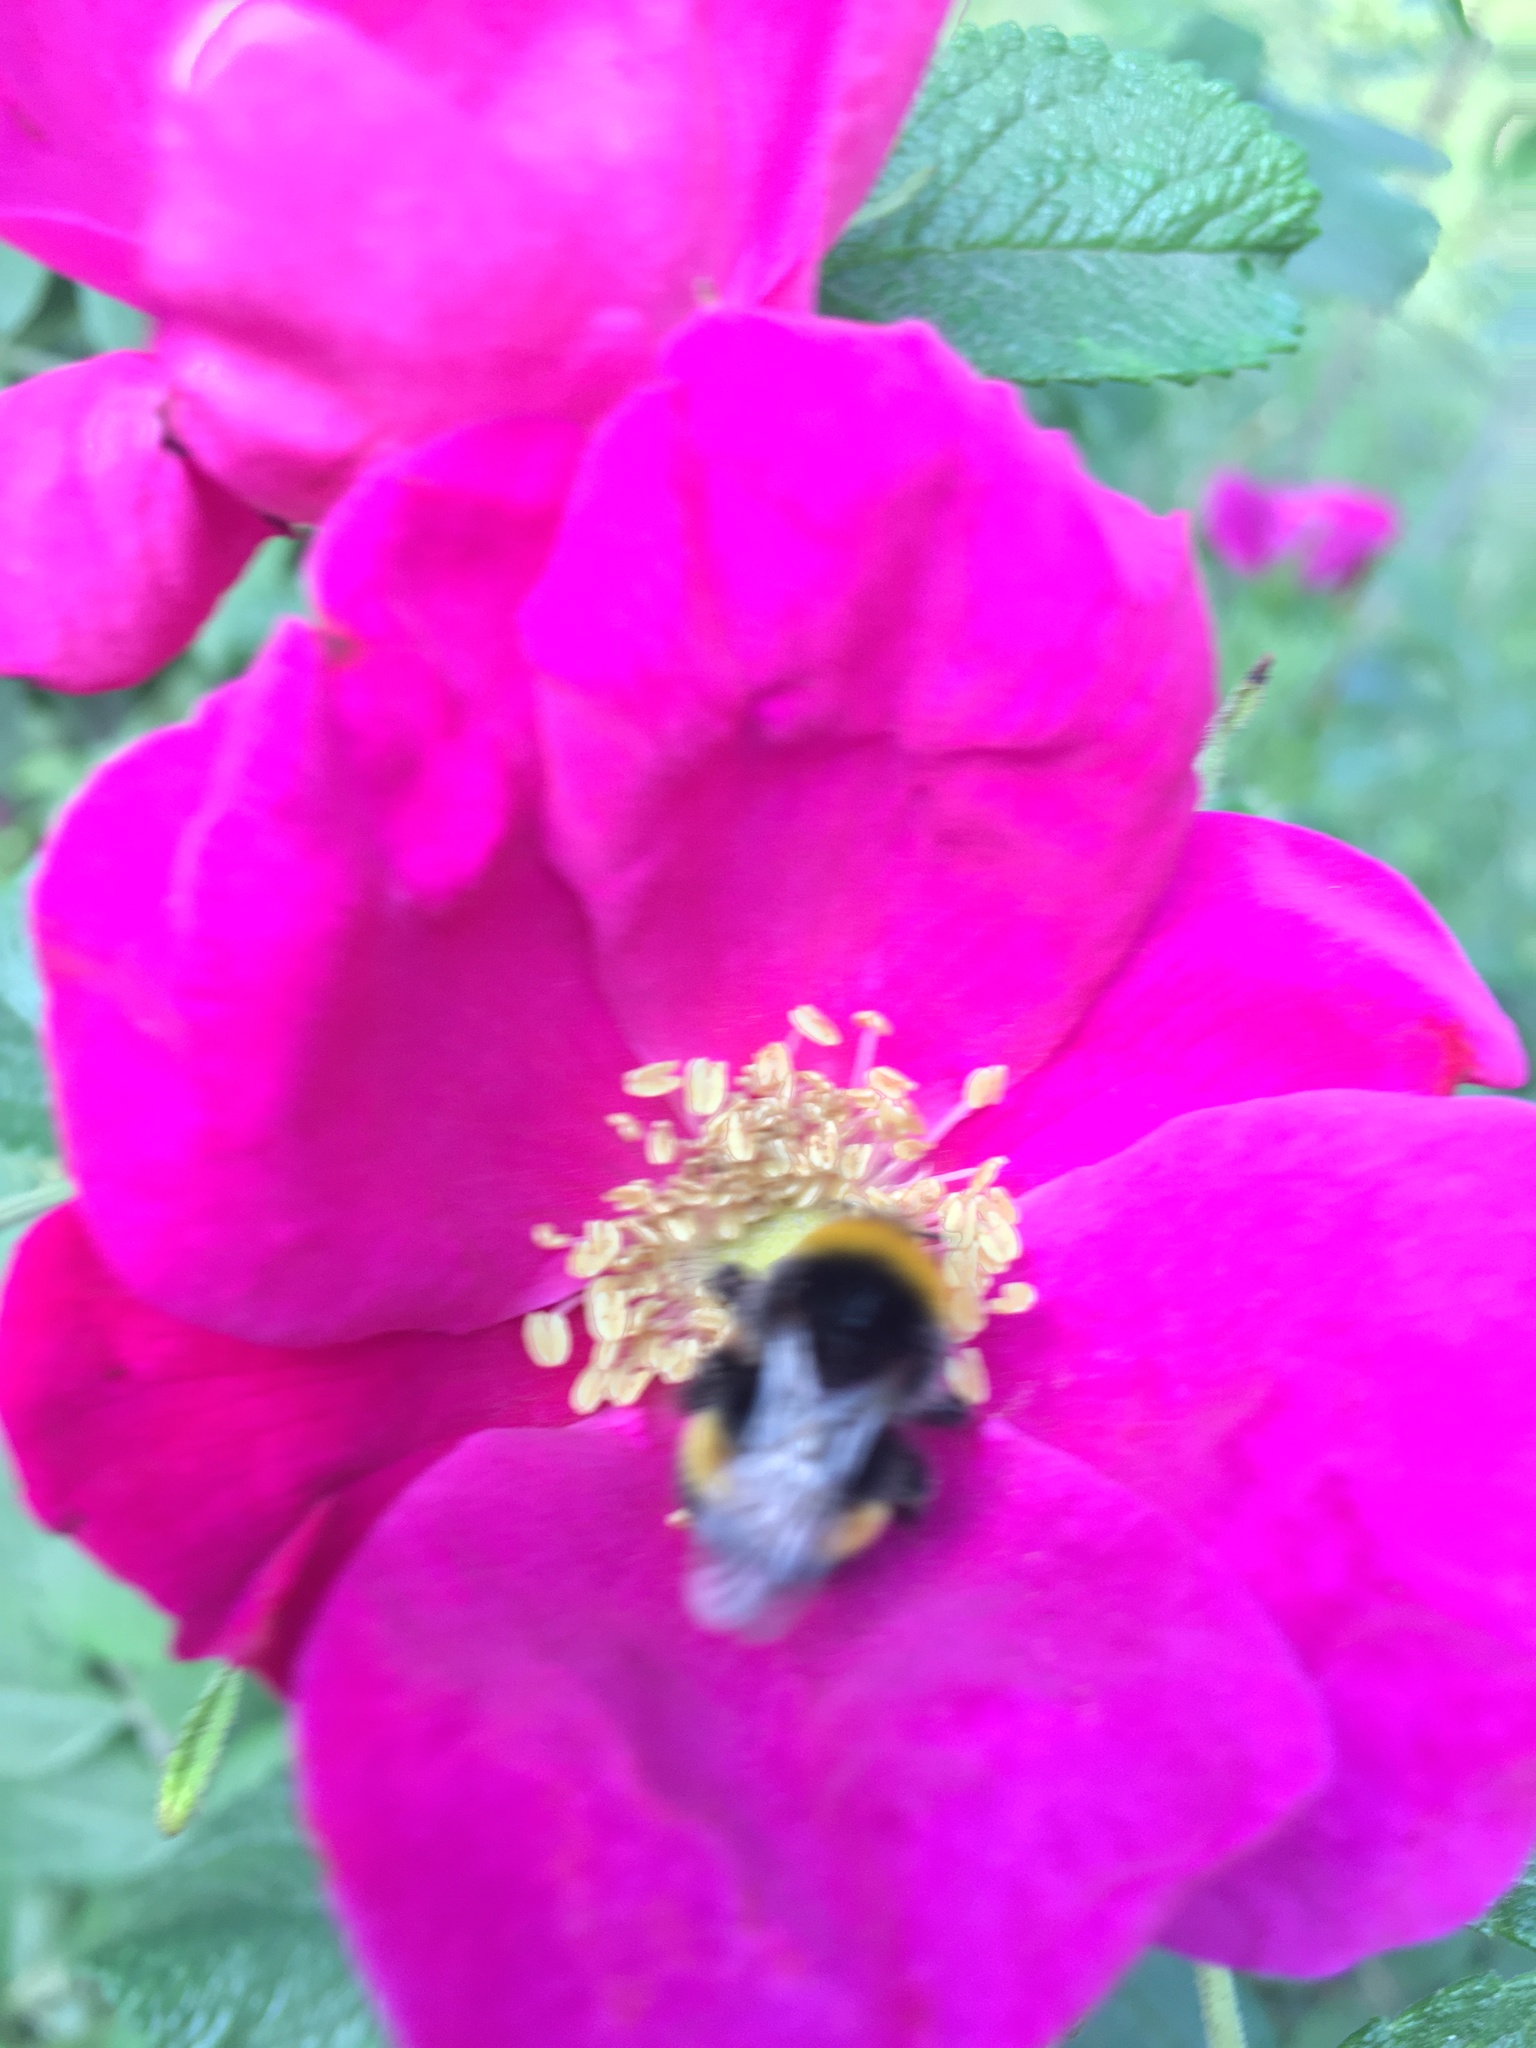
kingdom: Animalia
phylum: Arthropoda
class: Insecta
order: Hymenoptera
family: Apidae
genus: Bombus
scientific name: Bombus
